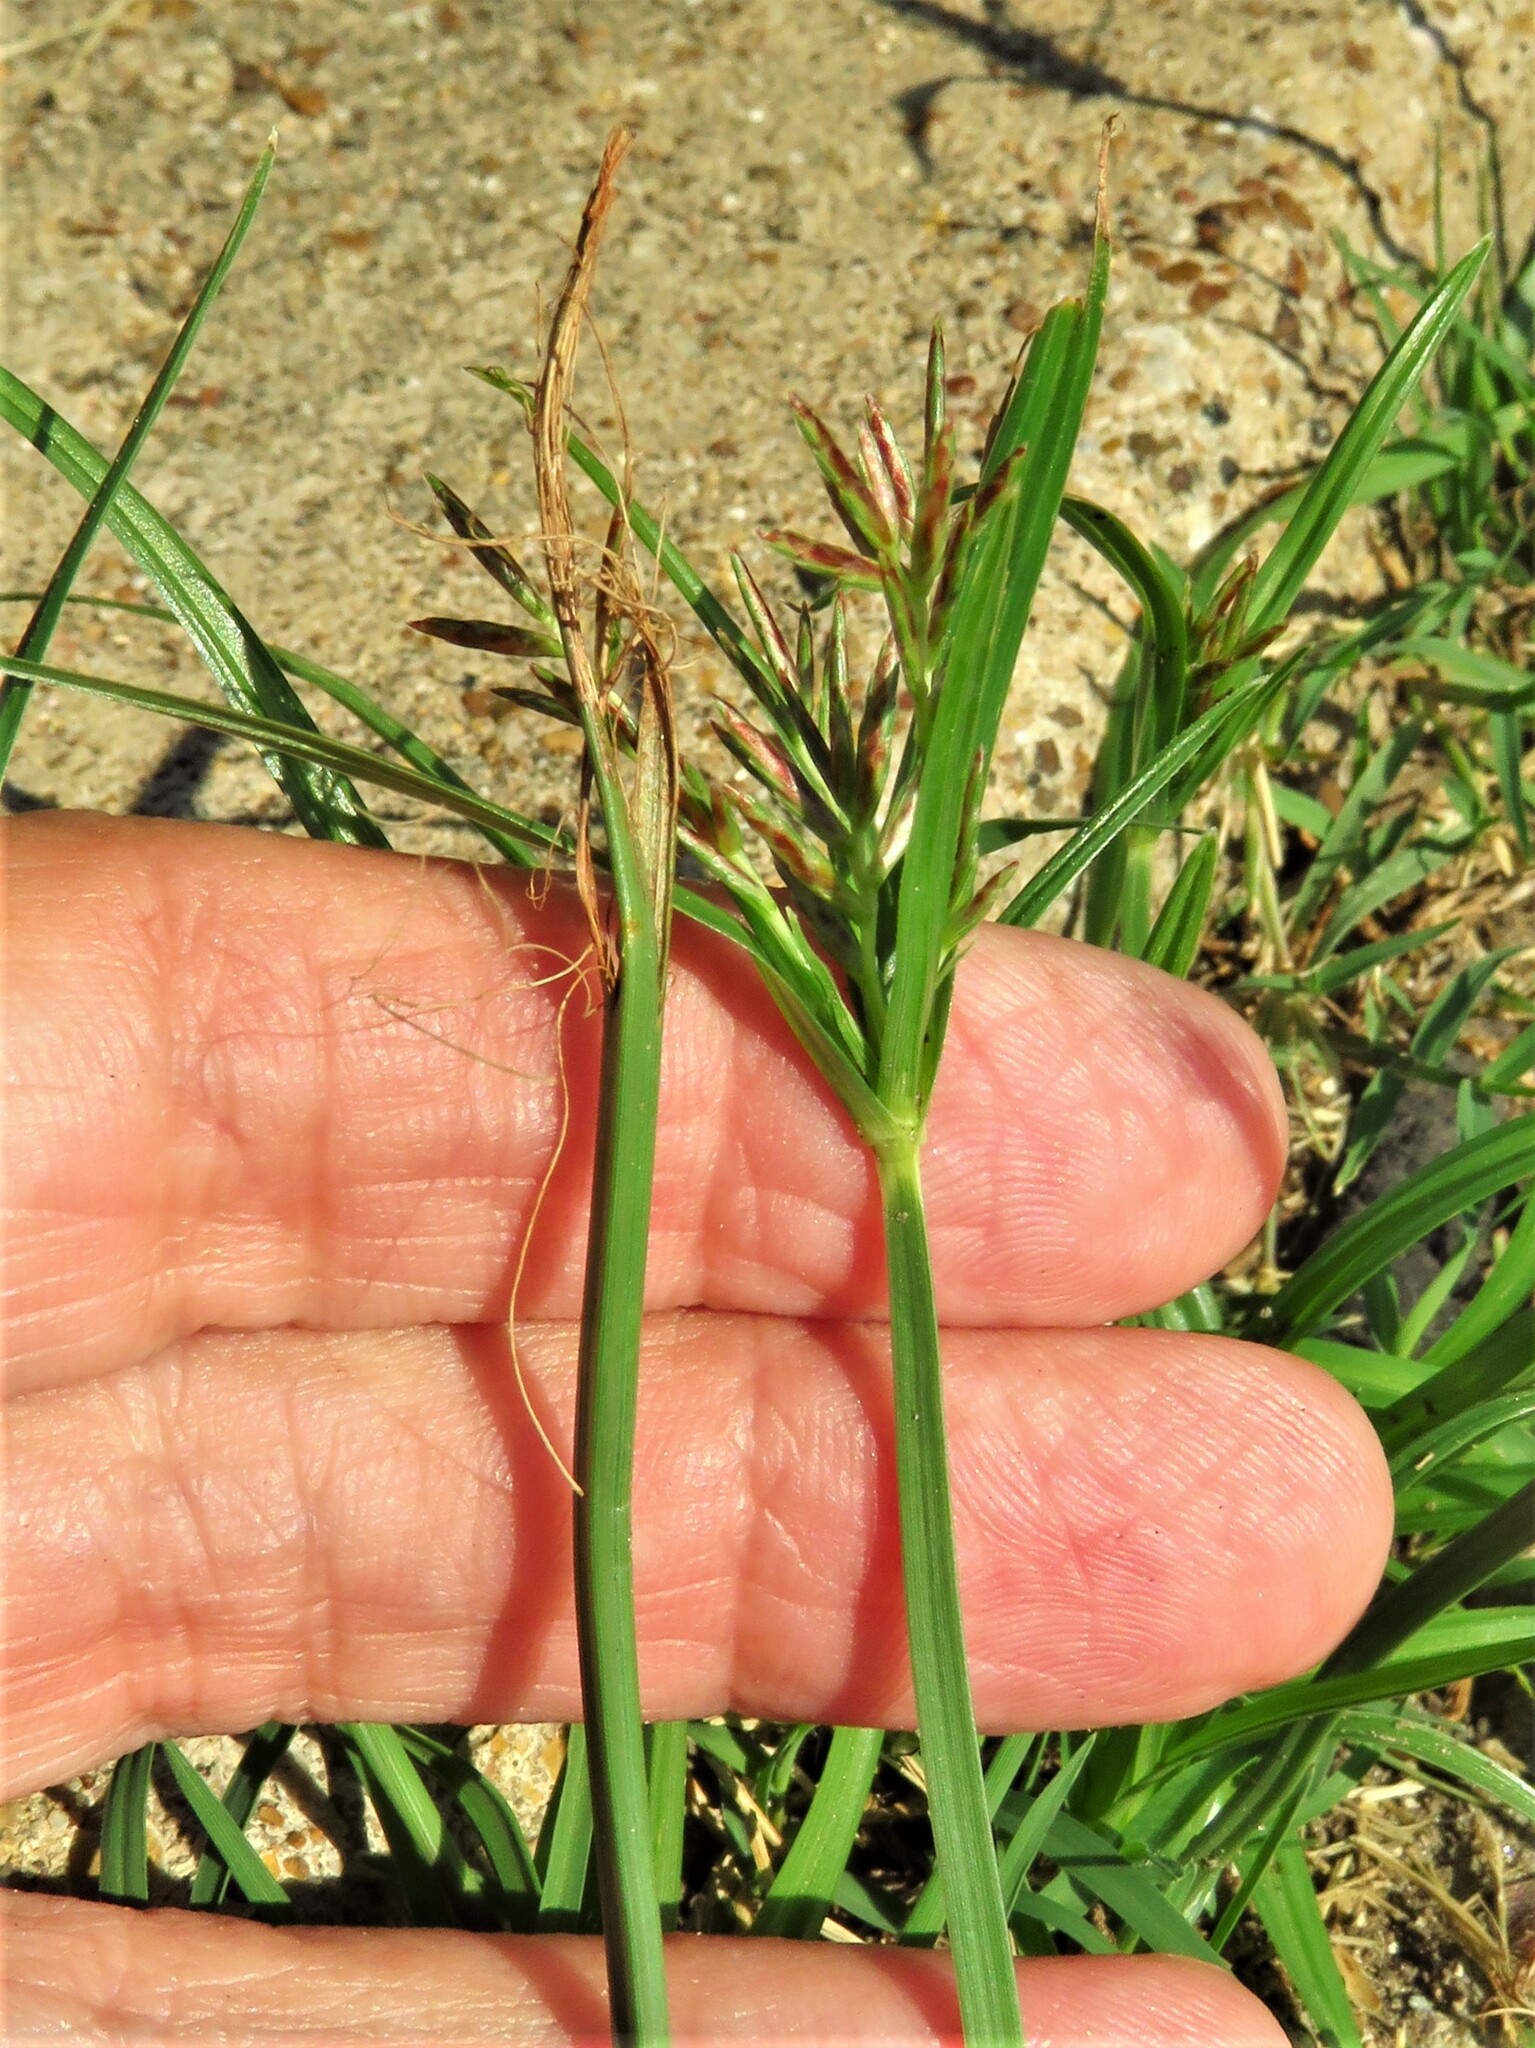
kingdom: Plantae
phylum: Tracheophyta
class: Liliopsida
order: Poales
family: Cyperaceae
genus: Cyperus
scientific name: Cyperus rotundus
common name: Nutgrass
